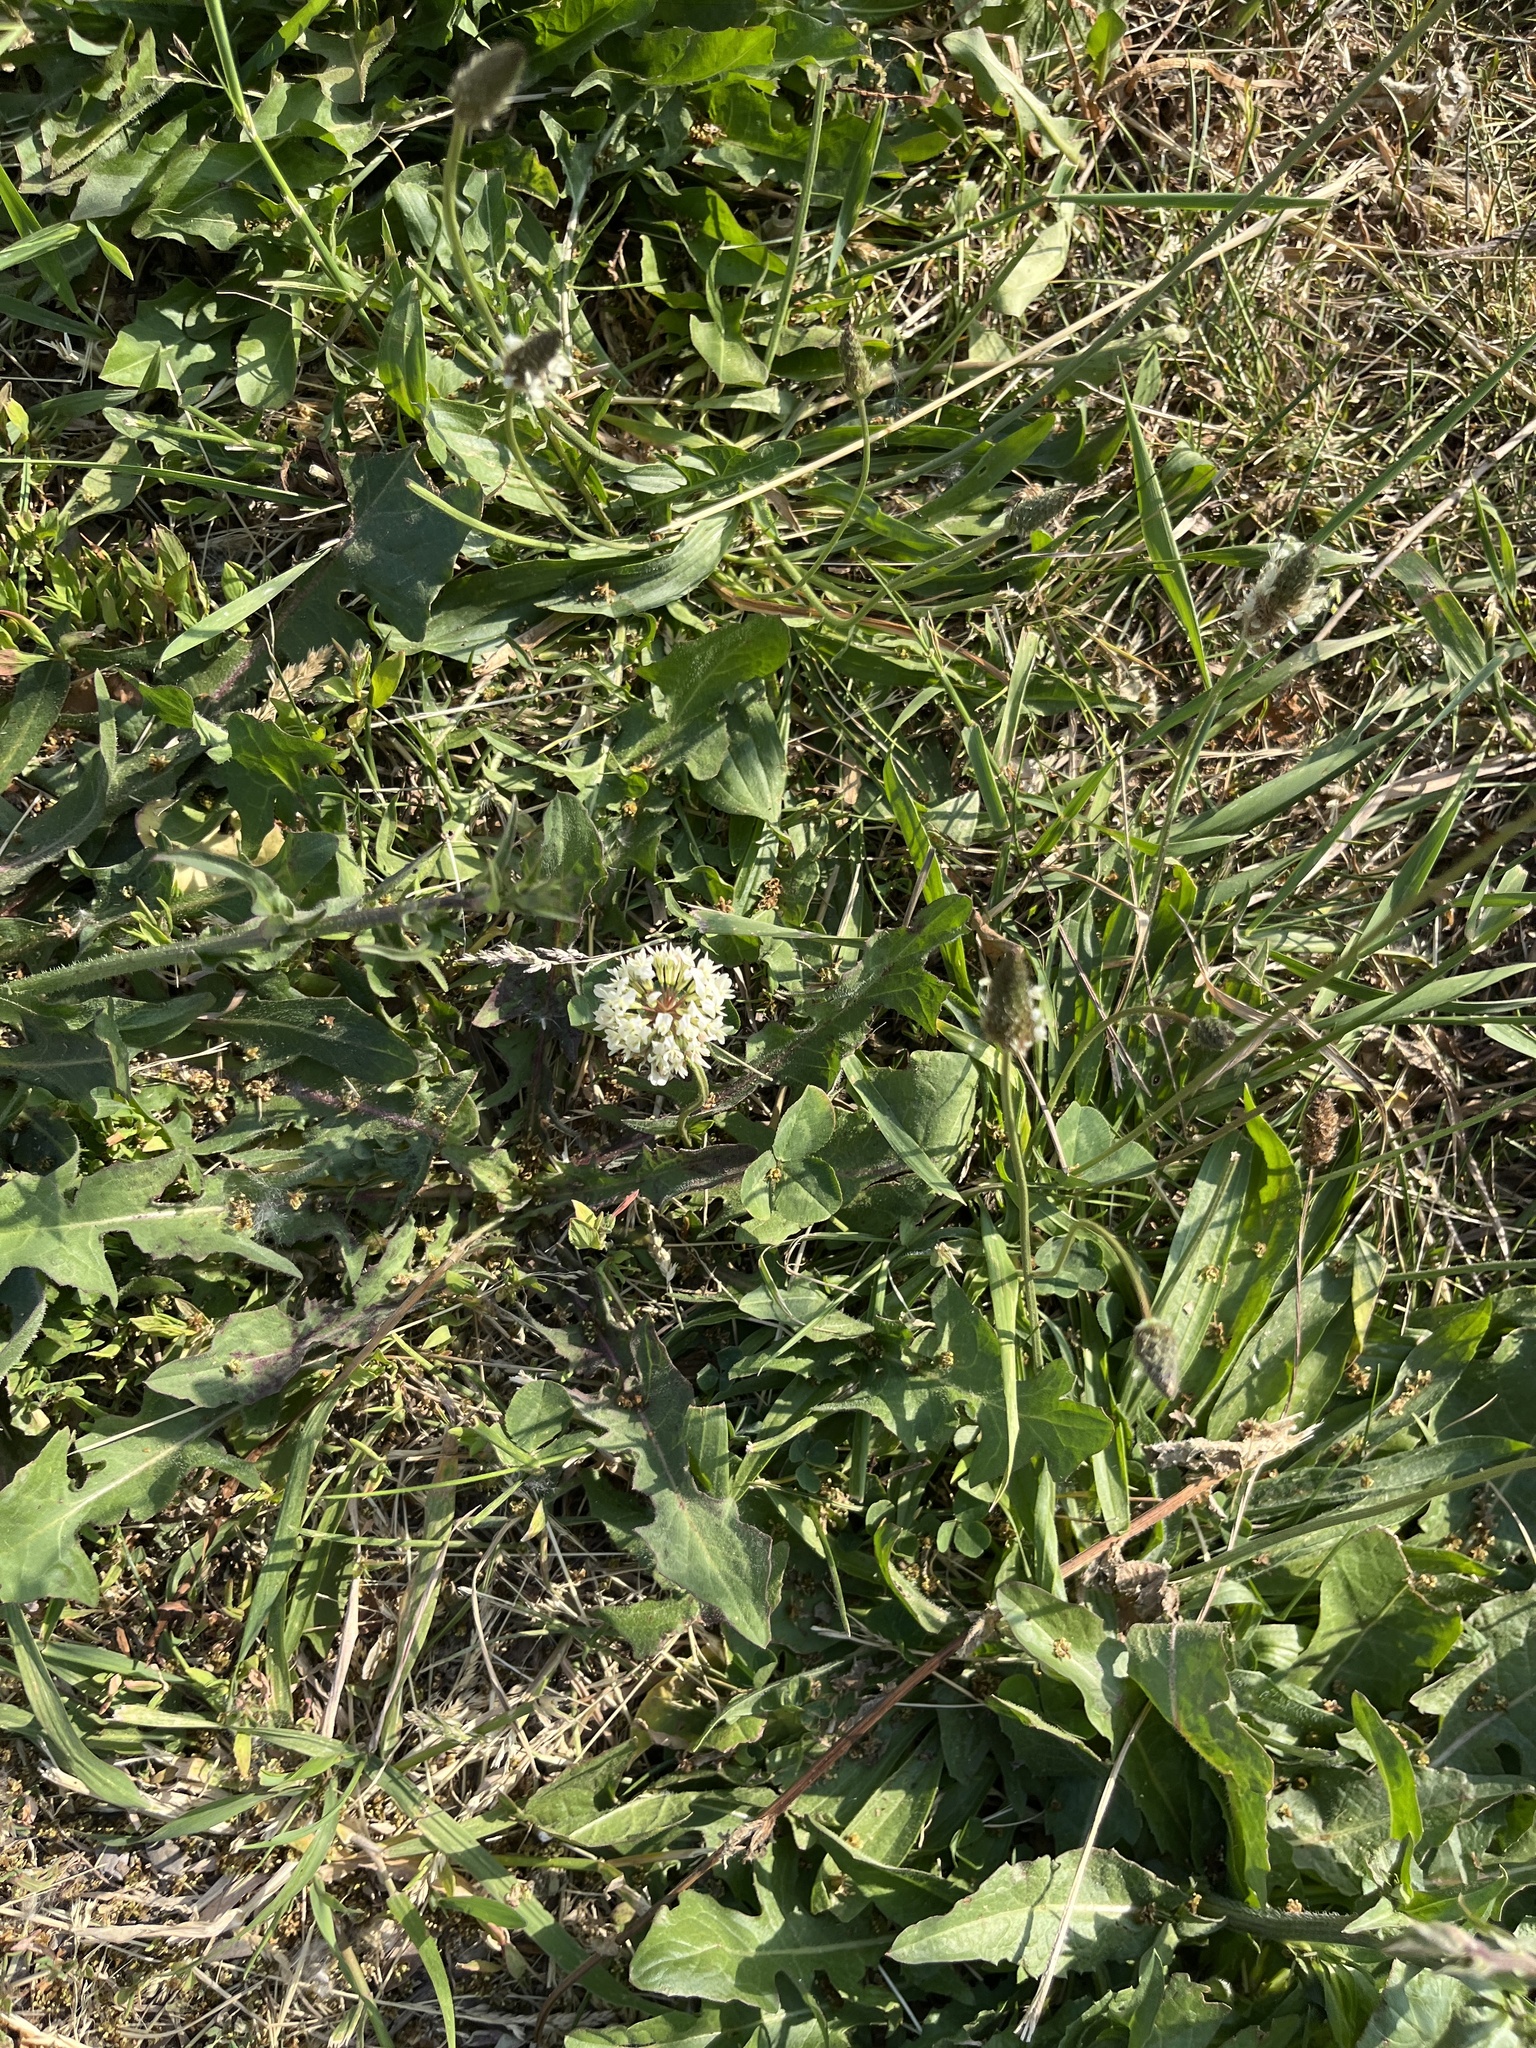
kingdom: Plantae
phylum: Tracheophyta
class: Magnoliopsida
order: Fabales
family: Fabaceae
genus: Trifolium
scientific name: Trifolium repens
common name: White clover
